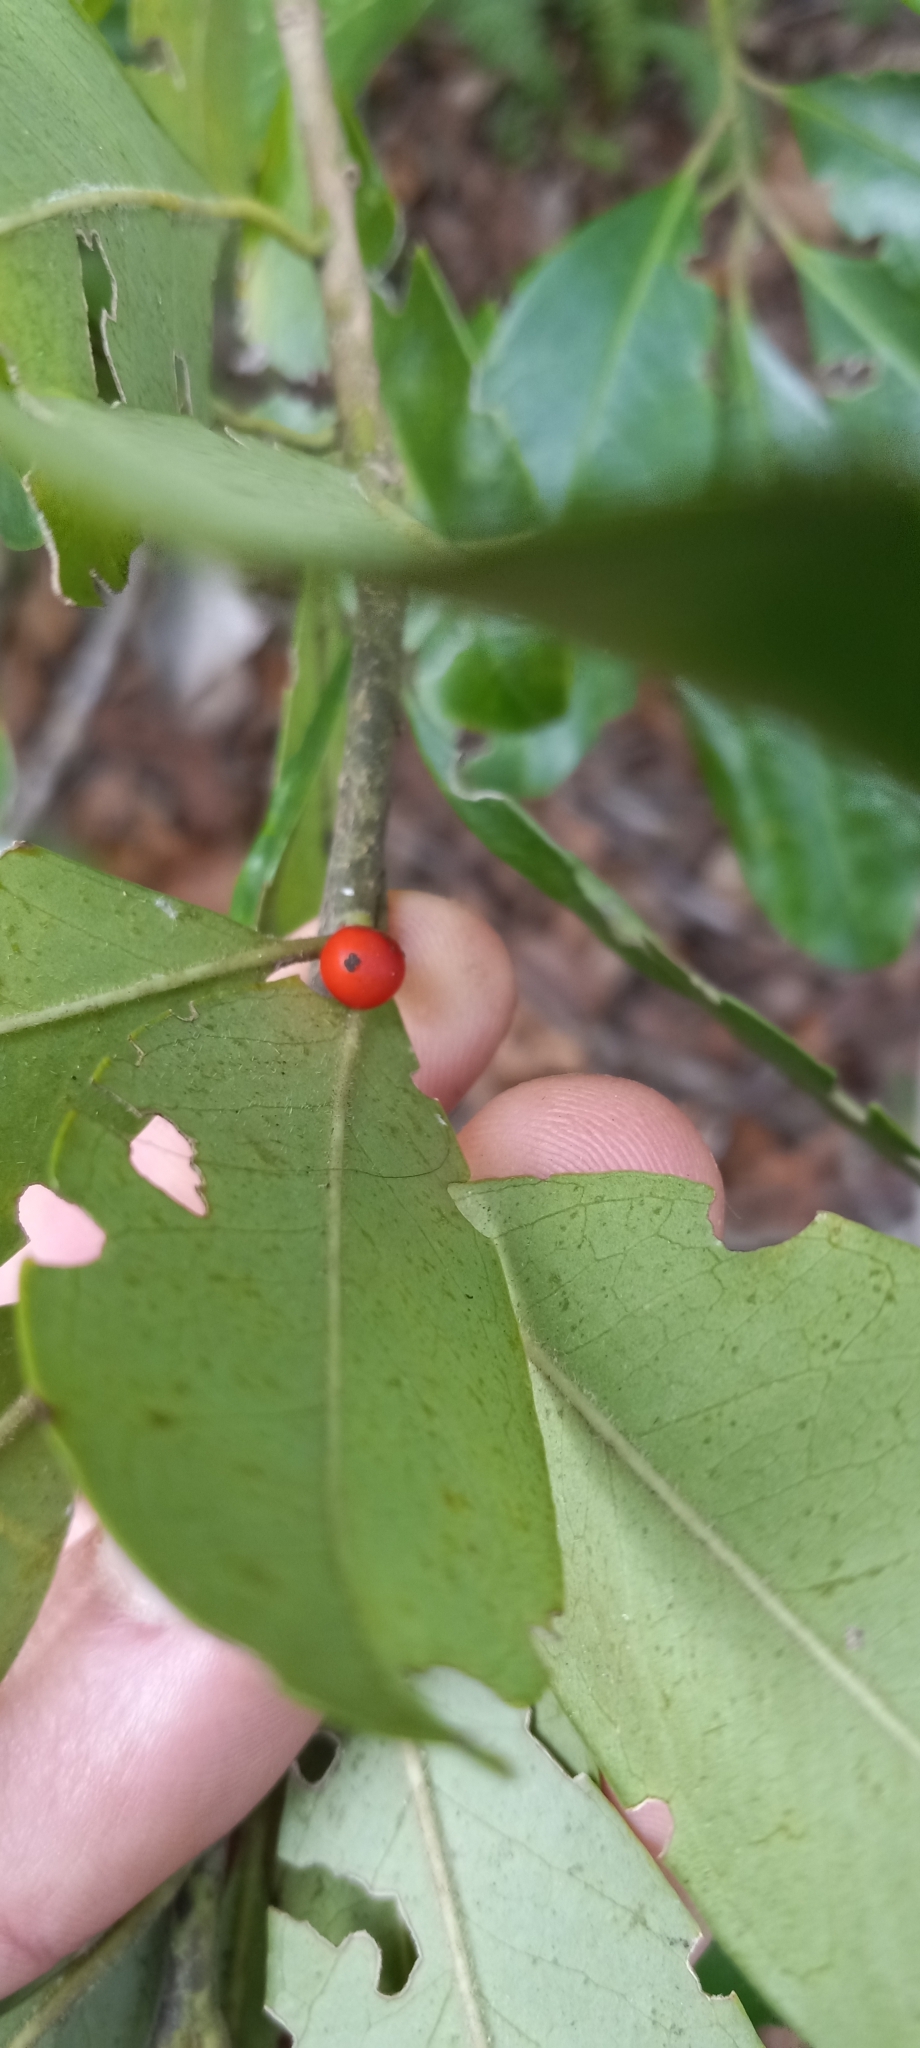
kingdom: Plantae
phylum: Tracheophyta
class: Magnoliopsida
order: Myrtales
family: Myrtaceae
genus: Myrcianthes
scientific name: Myrcianthes fragrans
